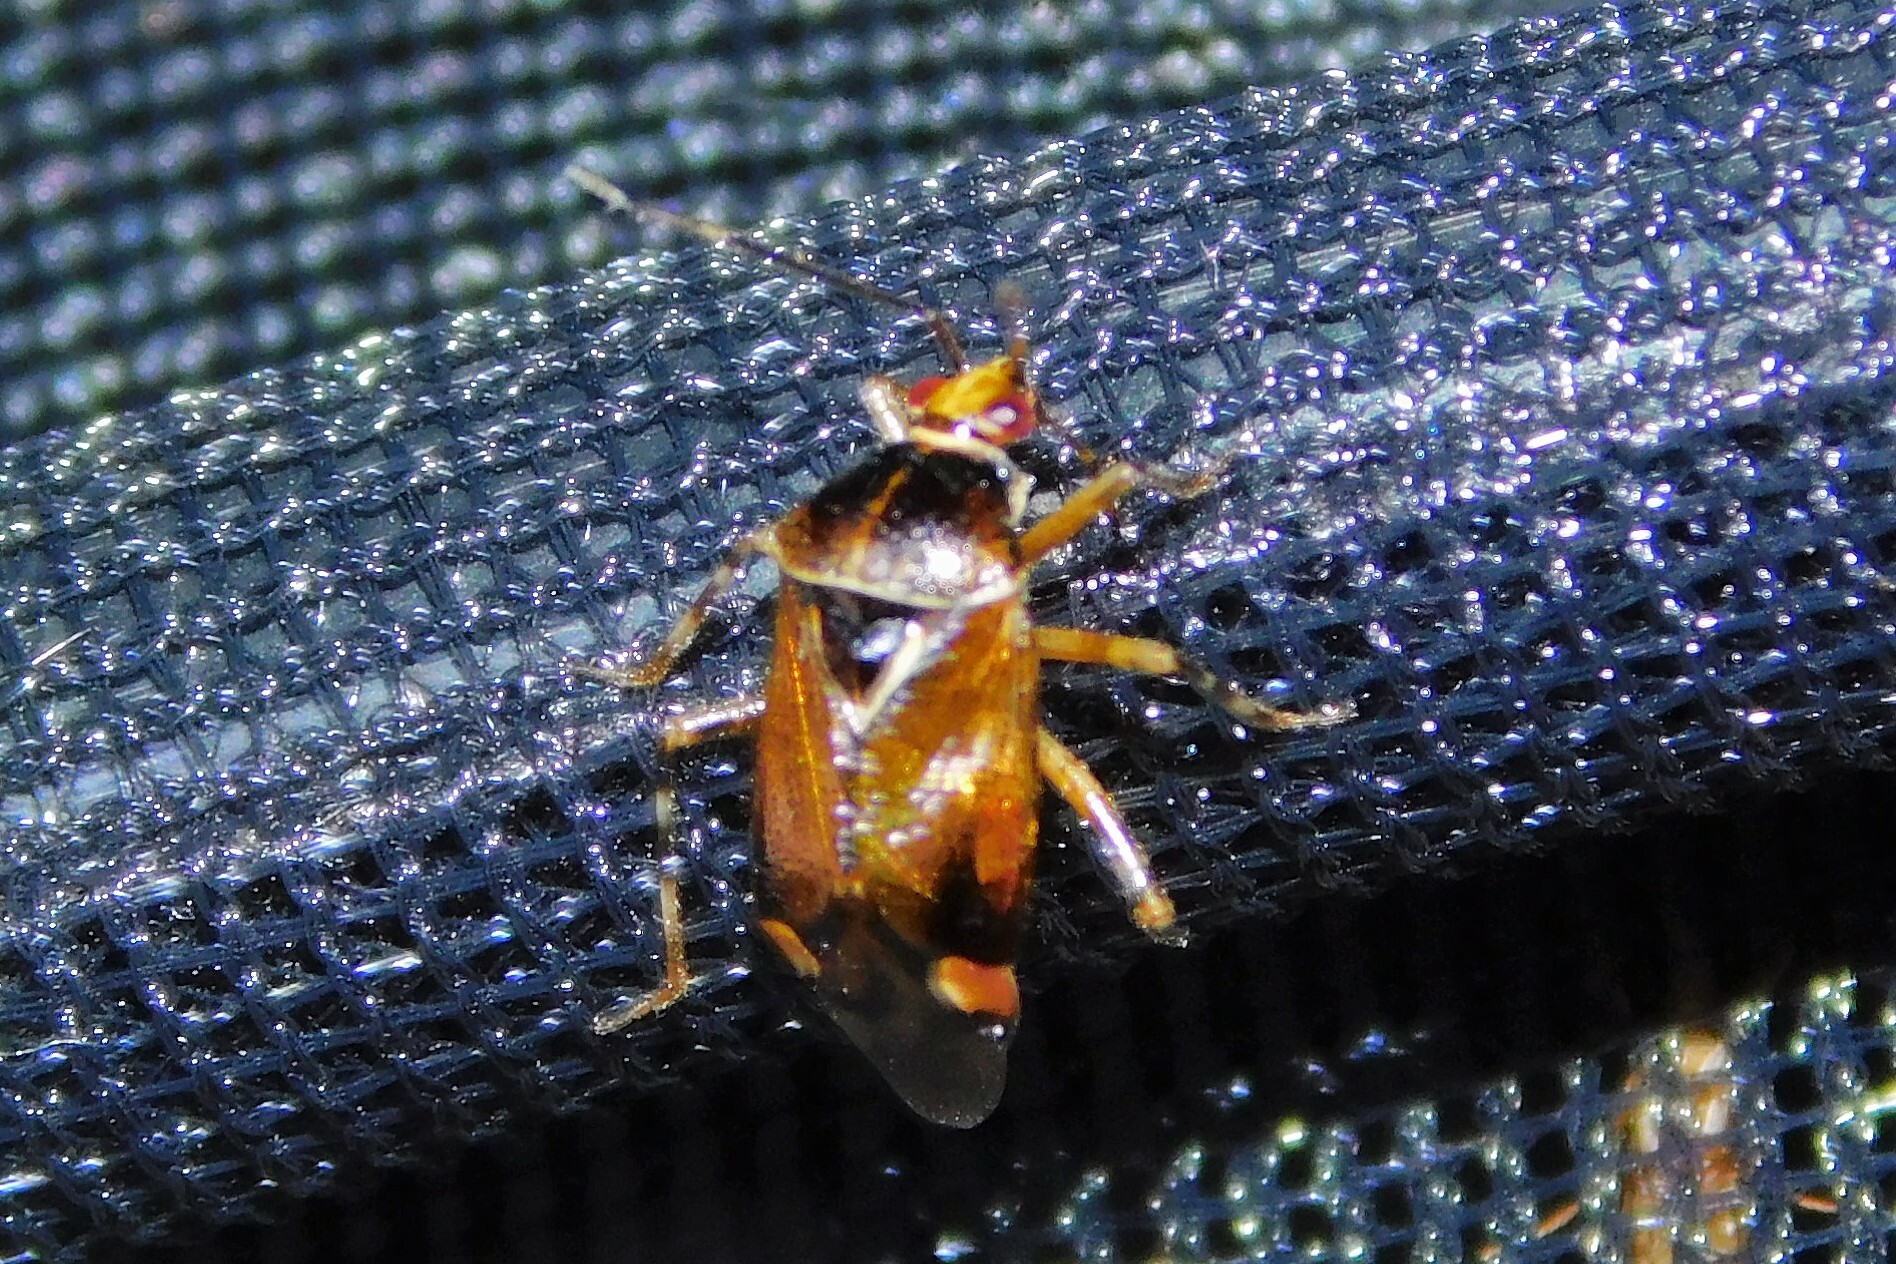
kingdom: Animalia
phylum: Arthropoda
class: Insecta
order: Hemiptera
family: Miridae
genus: Deraeocoris
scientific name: Deraeocoris flavilinea
